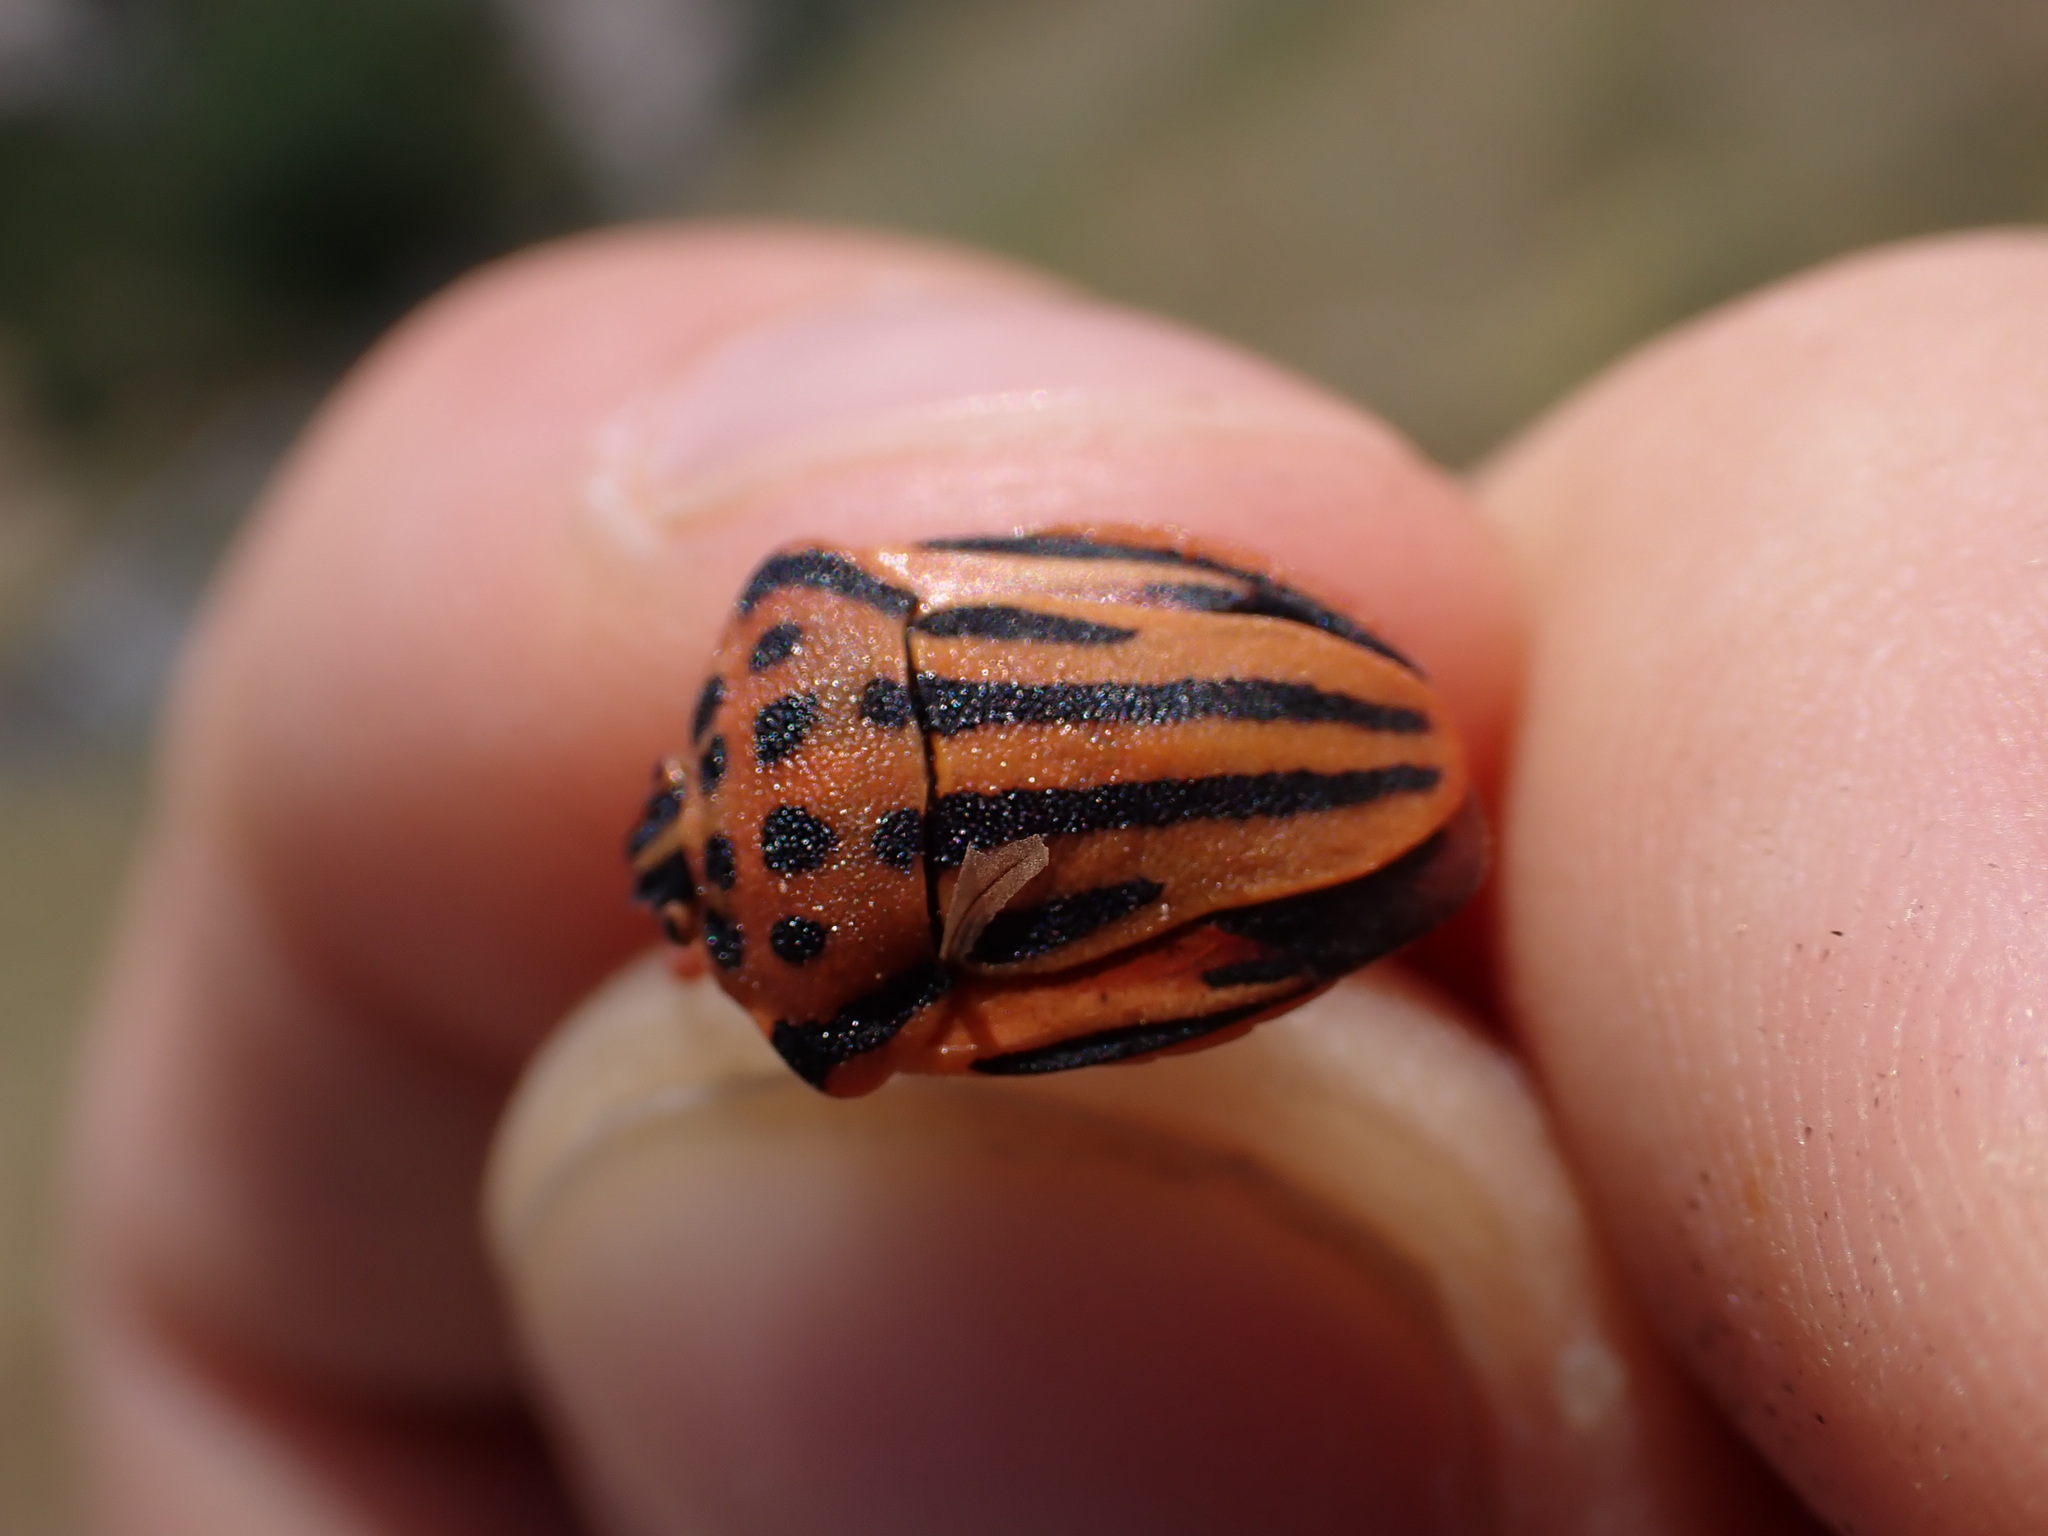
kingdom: Animalia
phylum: Arthropoda
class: Insecta
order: Hemiptera
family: Pentatomidae
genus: Graphosoma
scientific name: Graphosoma semipunctatum
